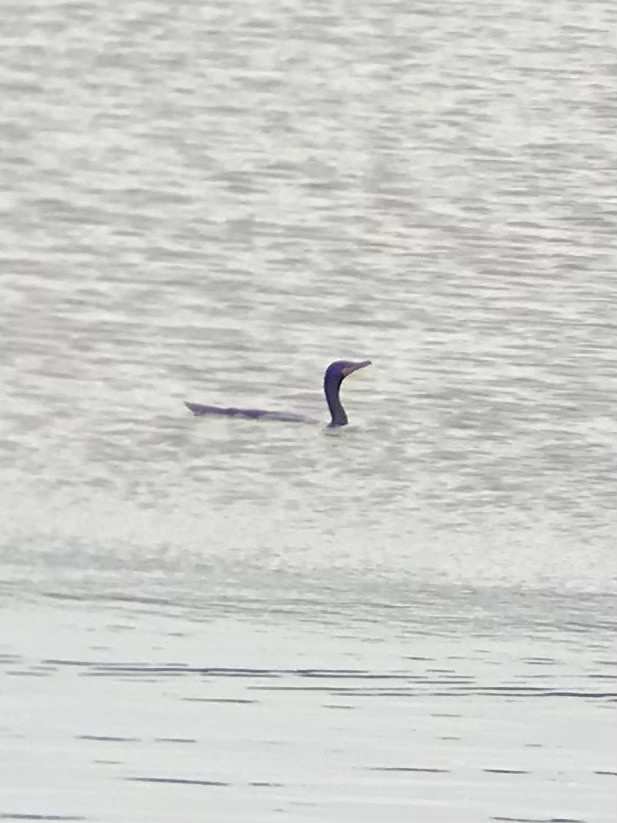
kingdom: Animalia
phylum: Chordata
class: Aves
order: Suliformes
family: Phalacrocoracidae
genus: Phalacrocorax
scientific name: Phalacrocorax auritus
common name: Double-crested cormorant
